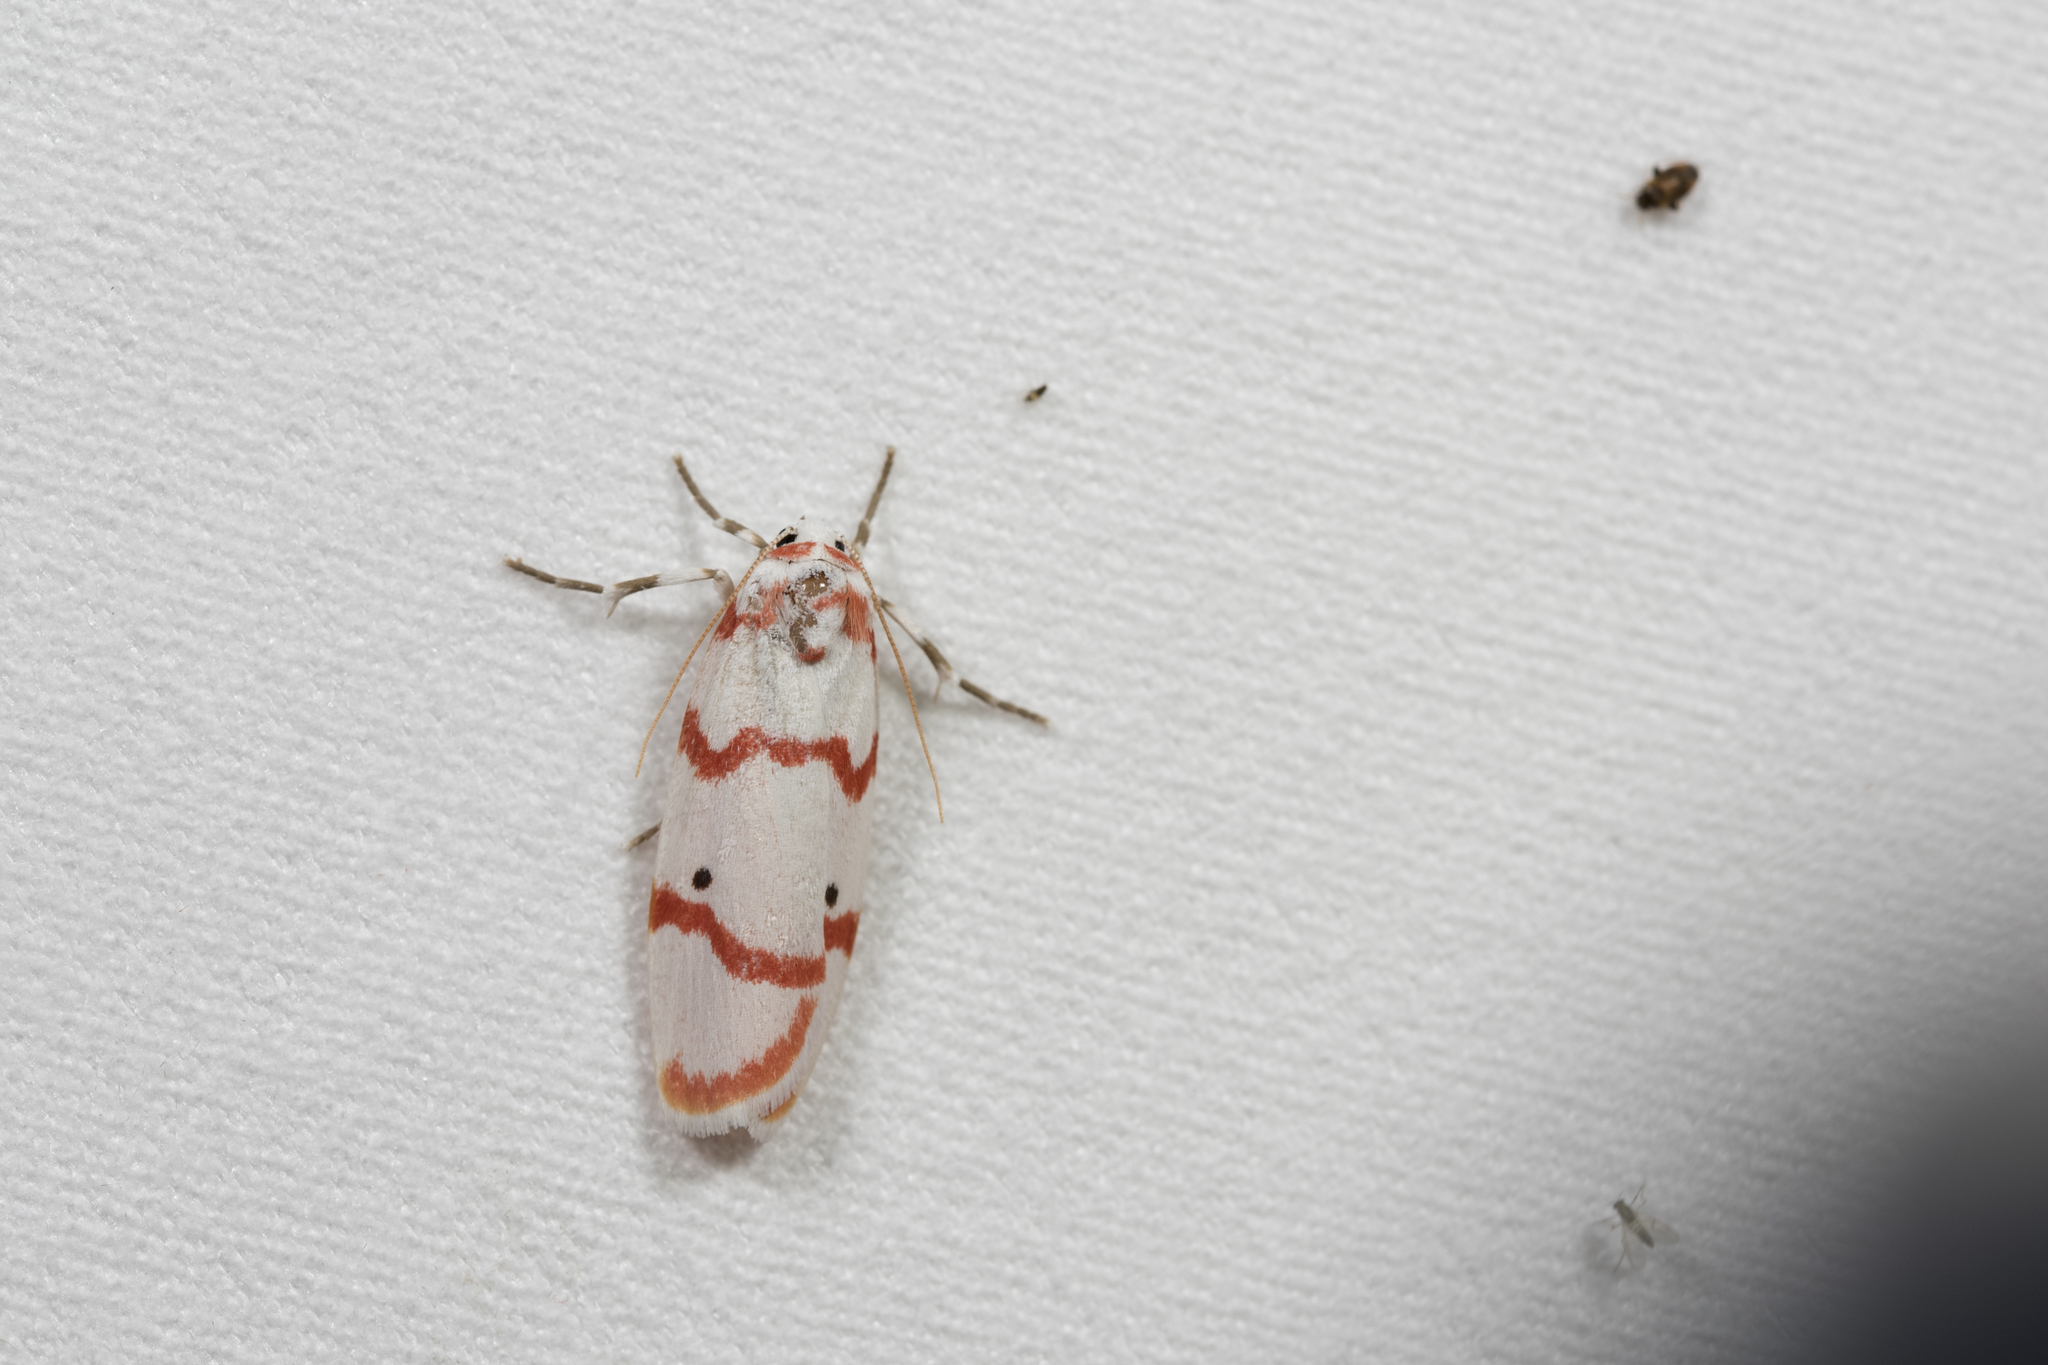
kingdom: Animalia
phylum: Arthropoda
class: Insecta
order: Lepidoptera
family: Erebidae
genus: Cyana
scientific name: Cyana hamata
